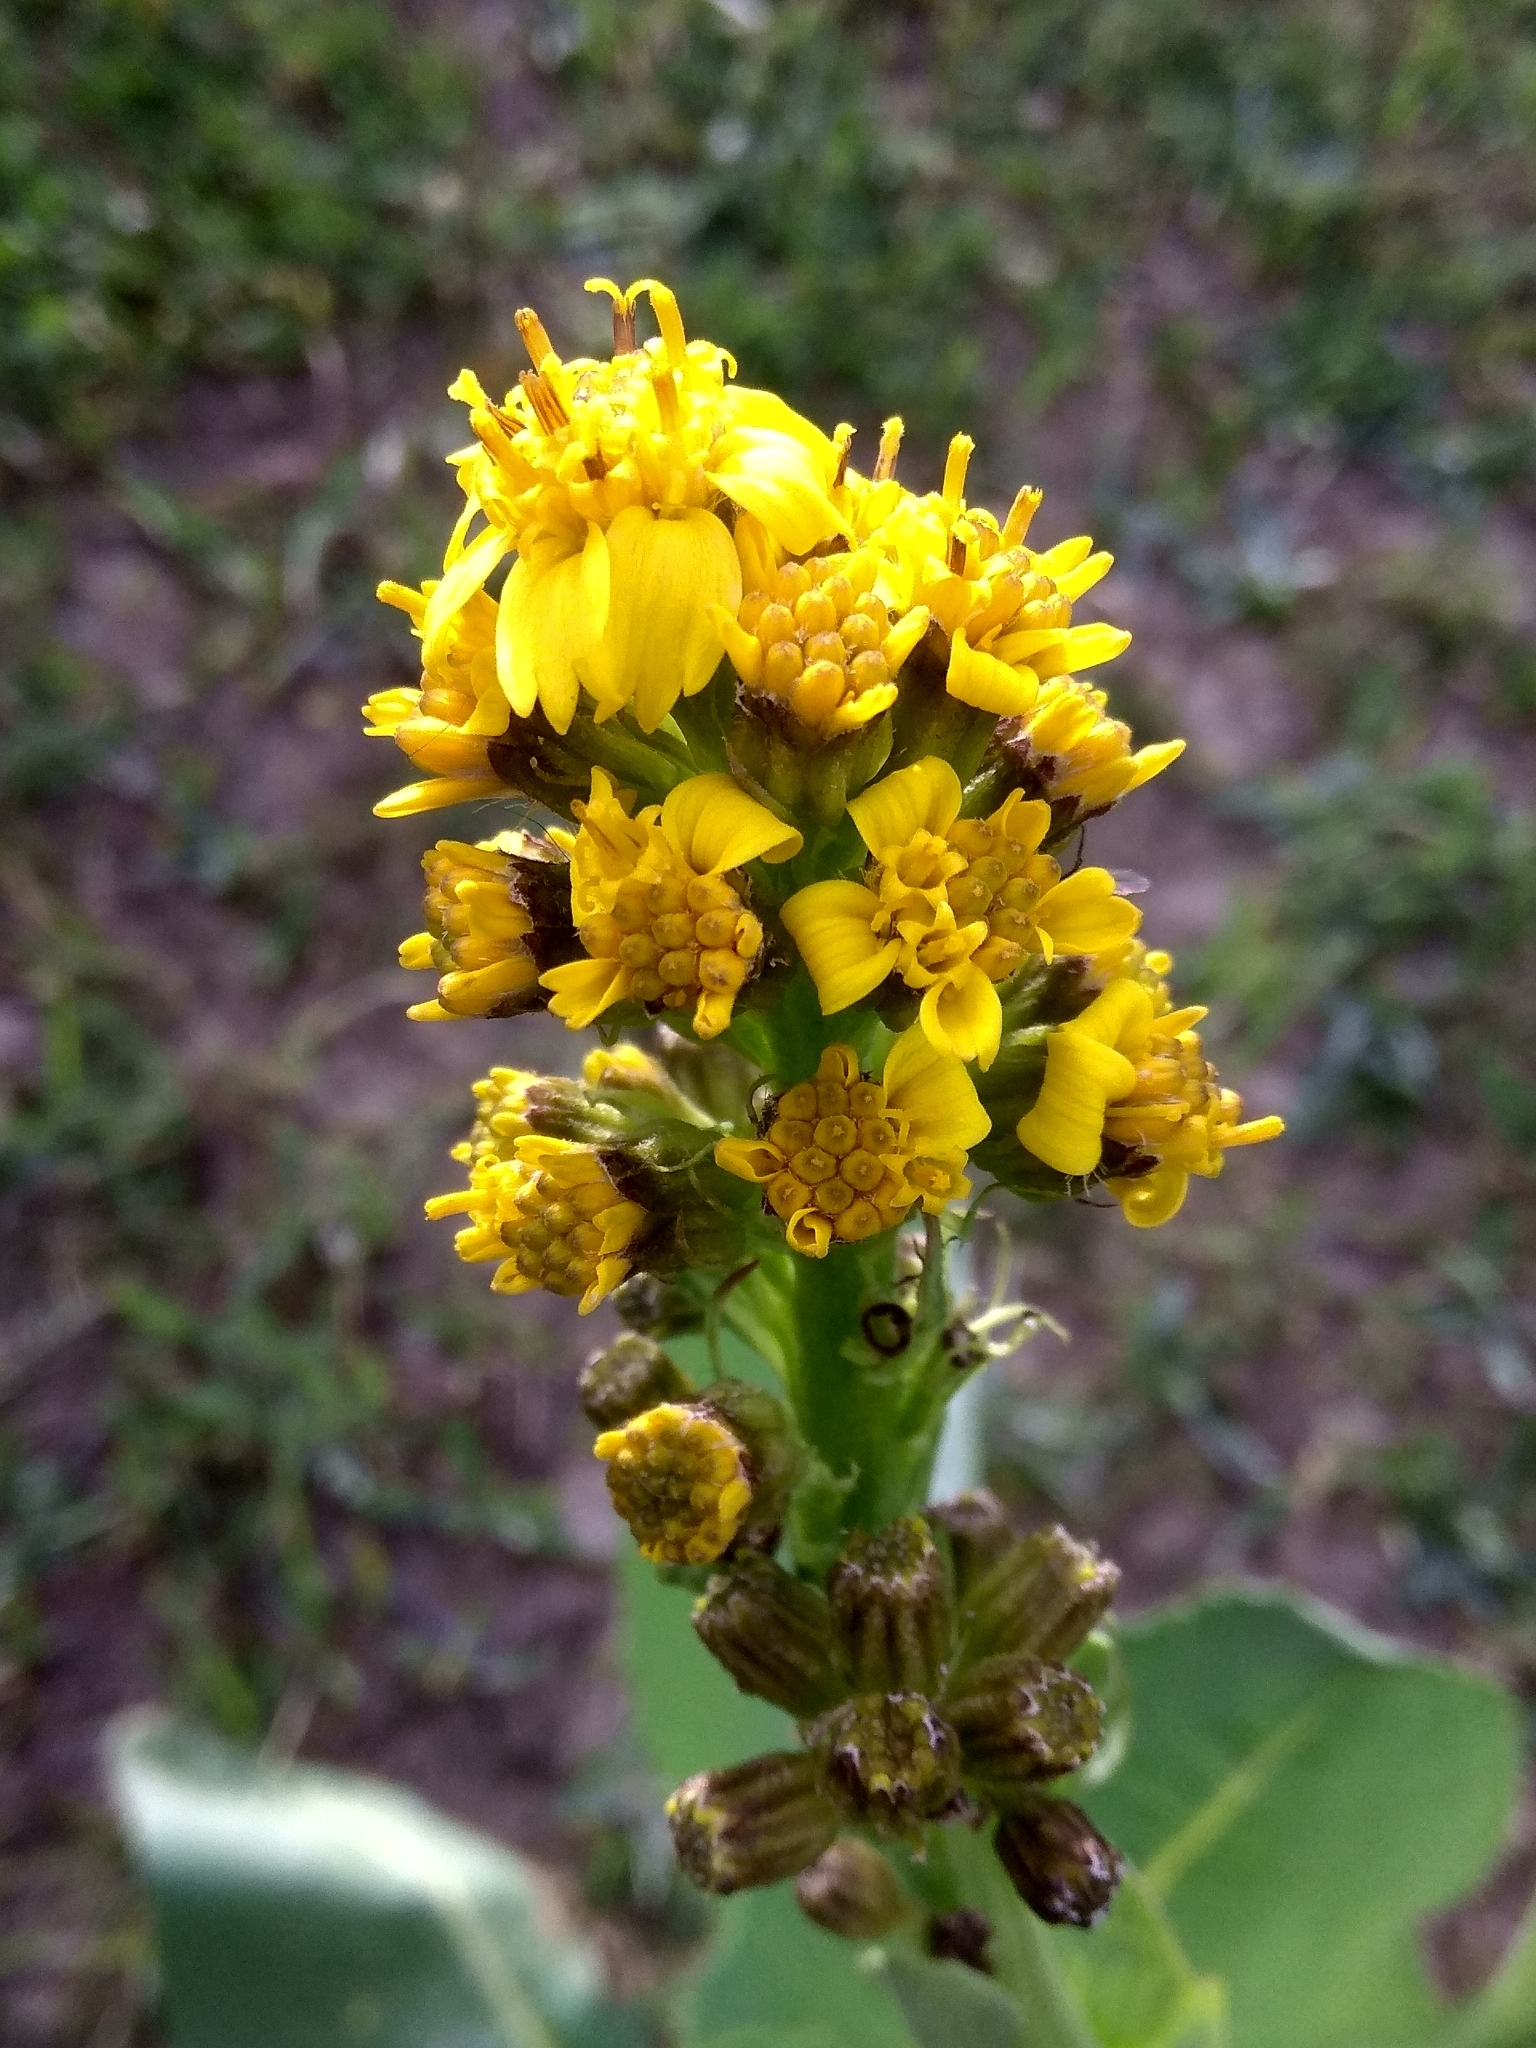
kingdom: Plantae
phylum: Tracheophyta
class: Magnoliopsida
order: Asterales
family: Asteraceae
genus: Ligularia
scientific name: Ligularia macrophylla
